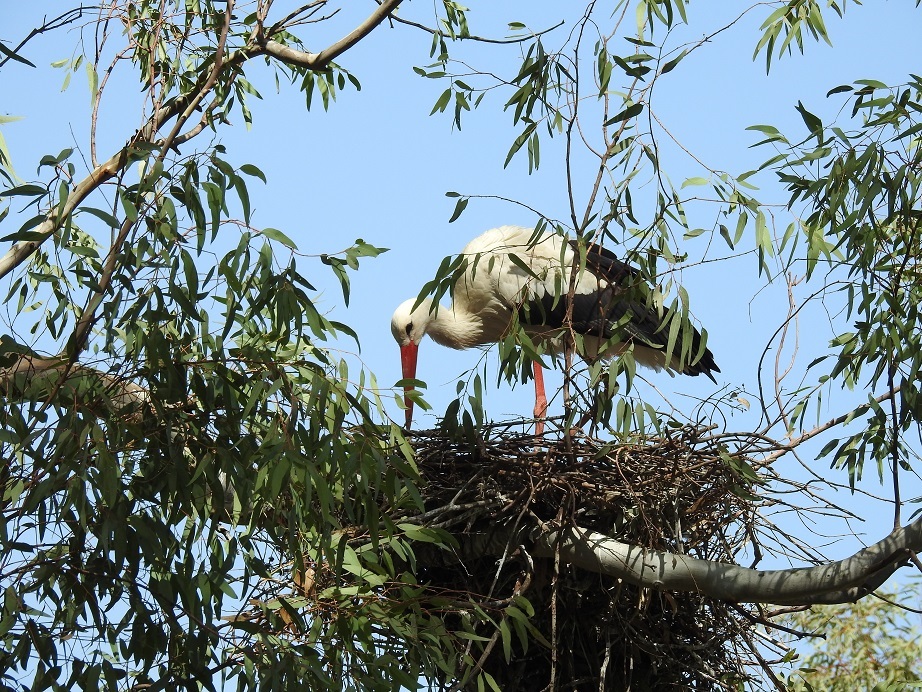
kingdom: Animalia
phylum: Chordata
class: Aves
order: Ciconiiformes
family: Ciconiidae
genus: Ciconia
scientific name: Ciconia ciconia
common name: White stork
